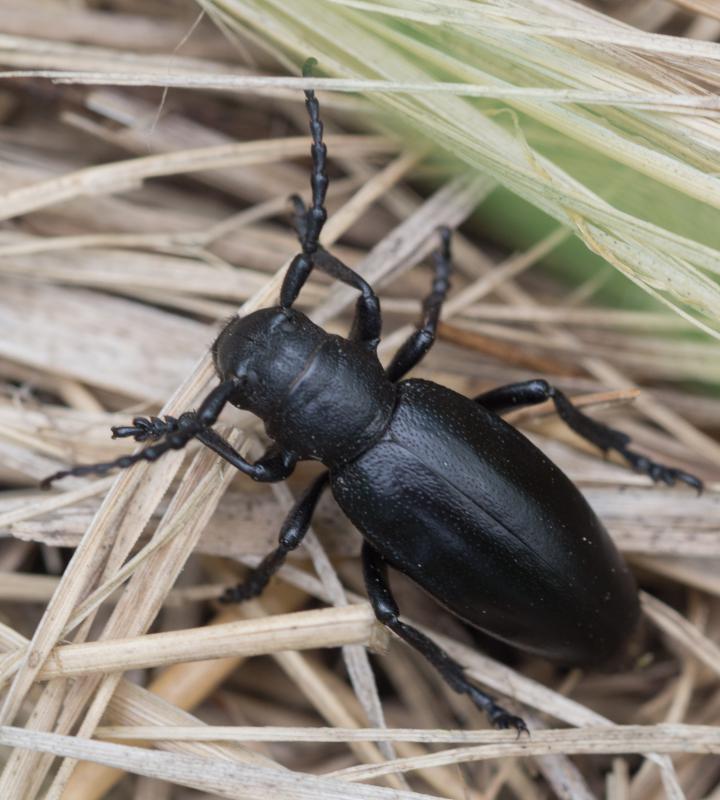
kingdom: Animalia
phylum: Arthropoda
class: Insecta
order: Coleoptera
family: Cerambycidae
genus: Dorcadion
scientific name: Dorcadion aethiops
